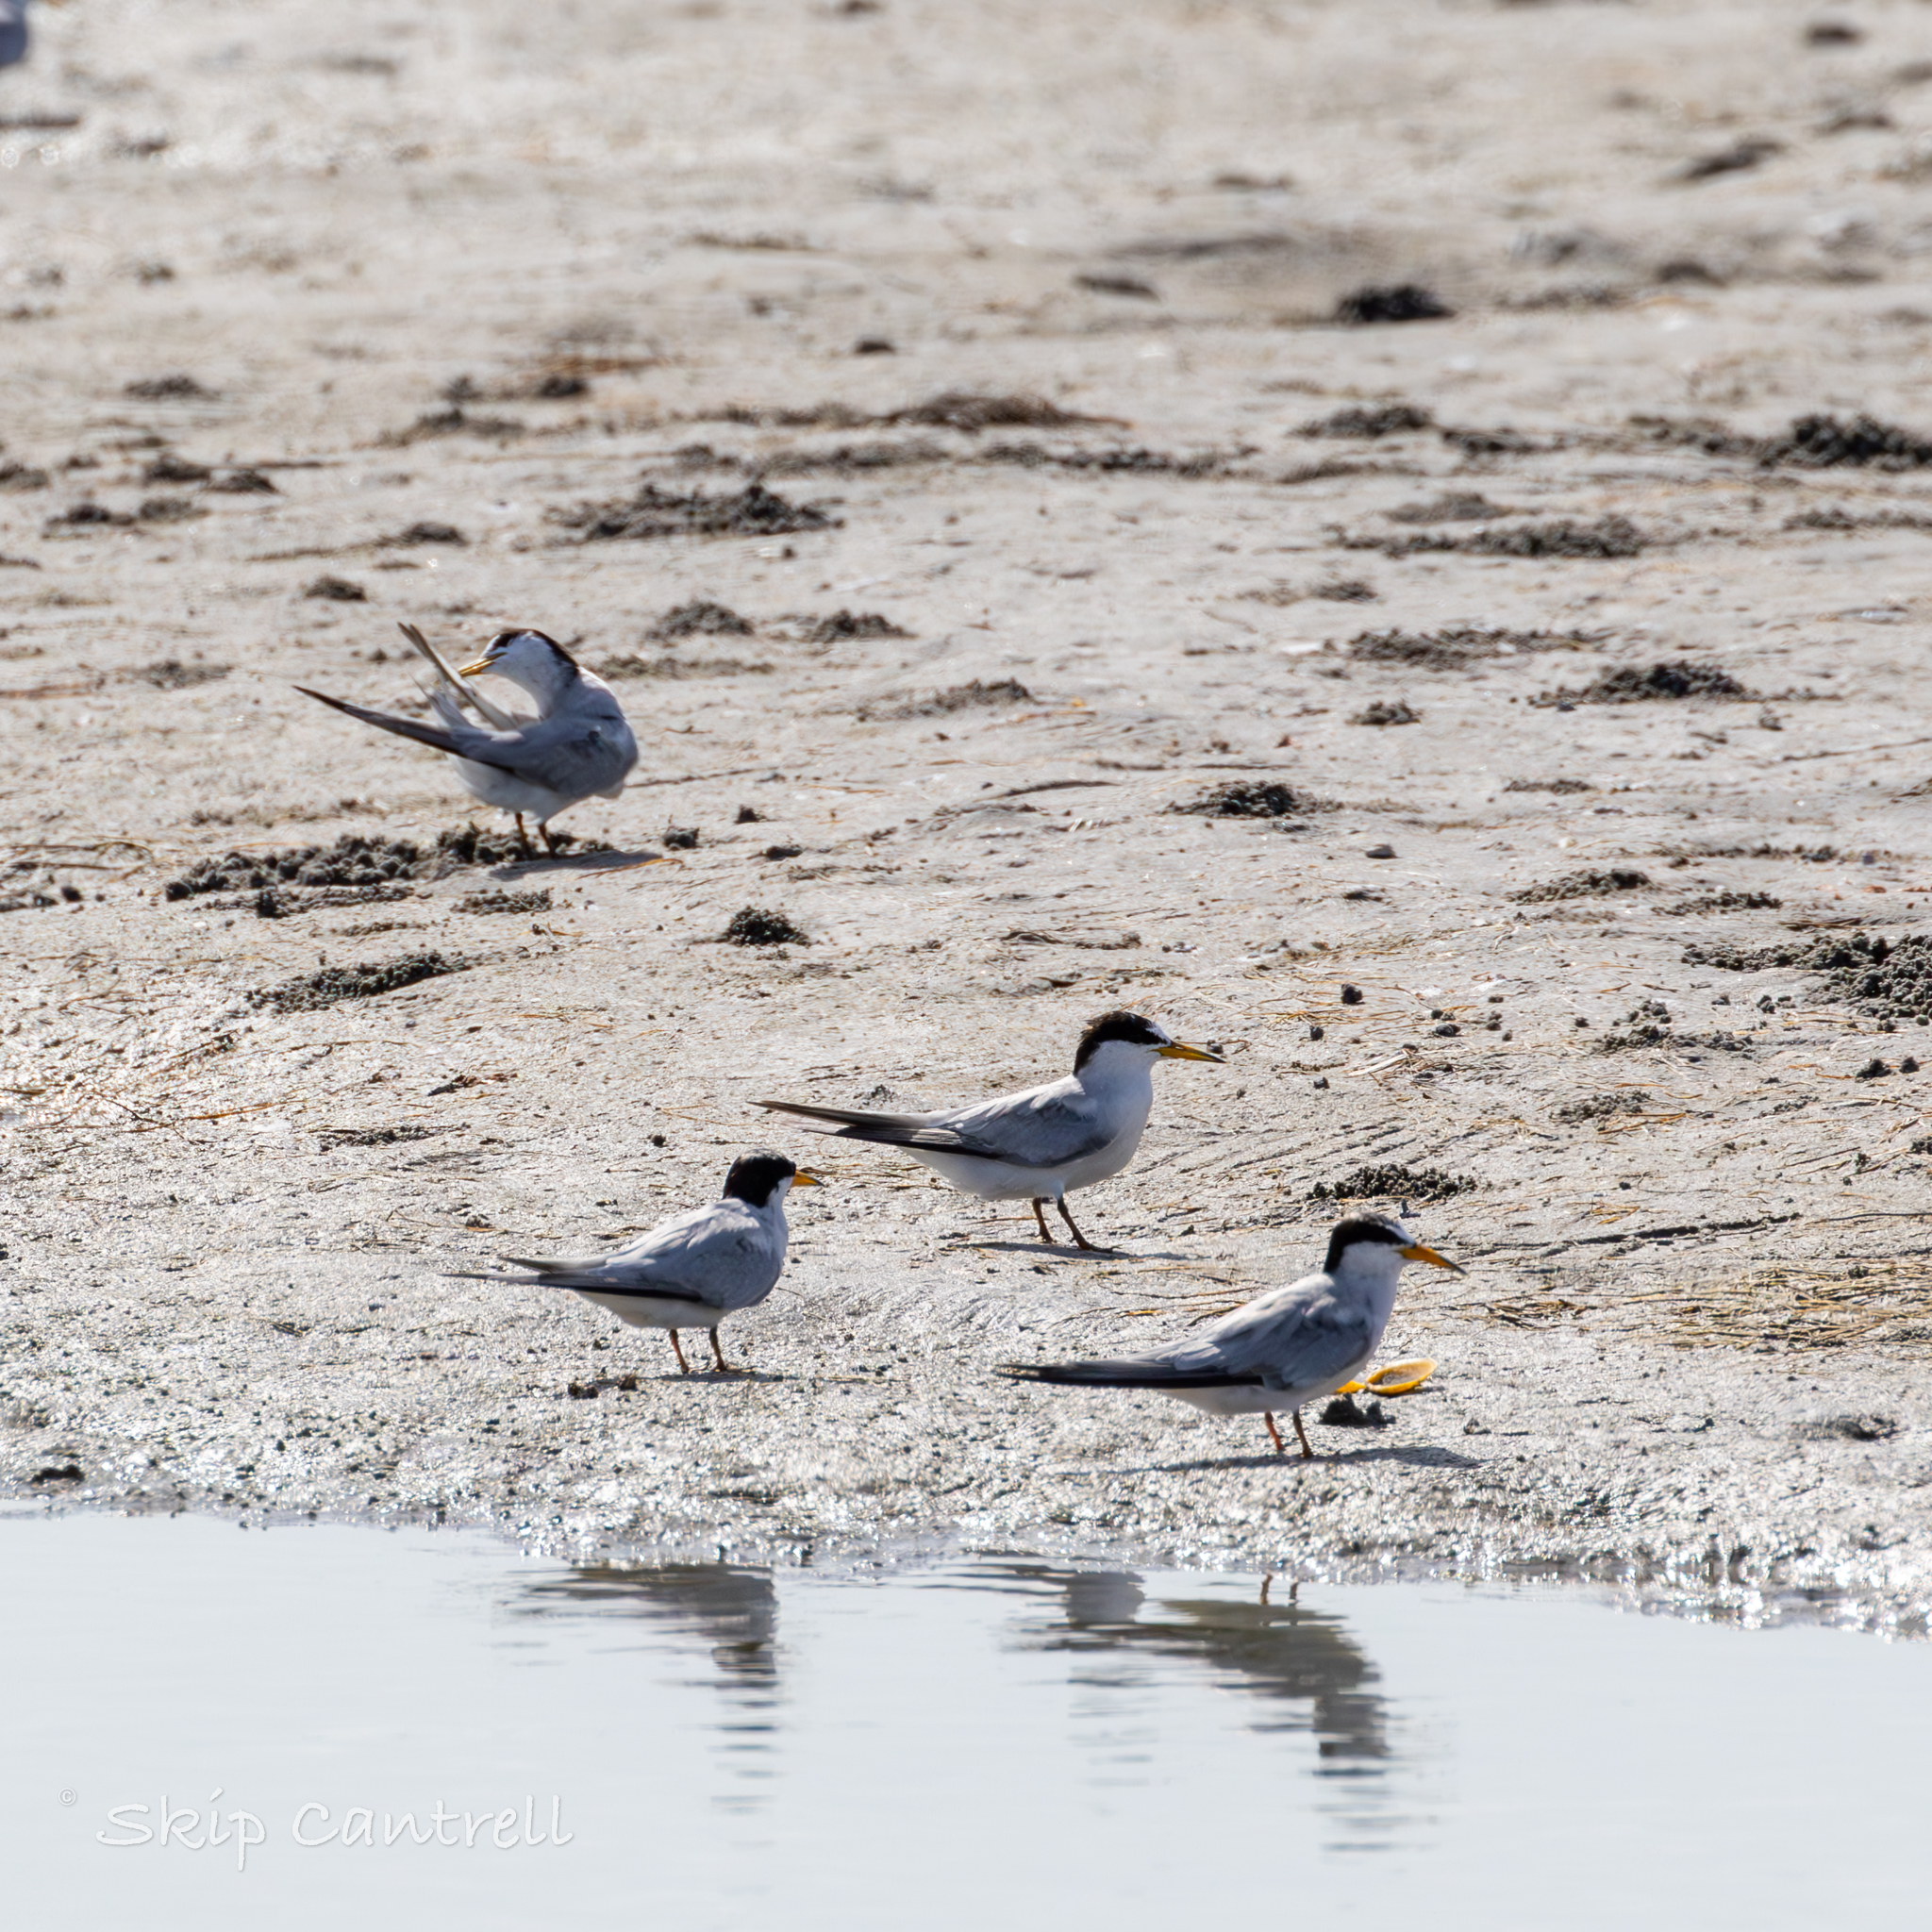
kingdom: Animalia
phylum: Chordata
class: Aves
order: Charadriiformes
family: Laridae
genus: Sternula
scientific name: Sternula antillarum
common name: Least tern
